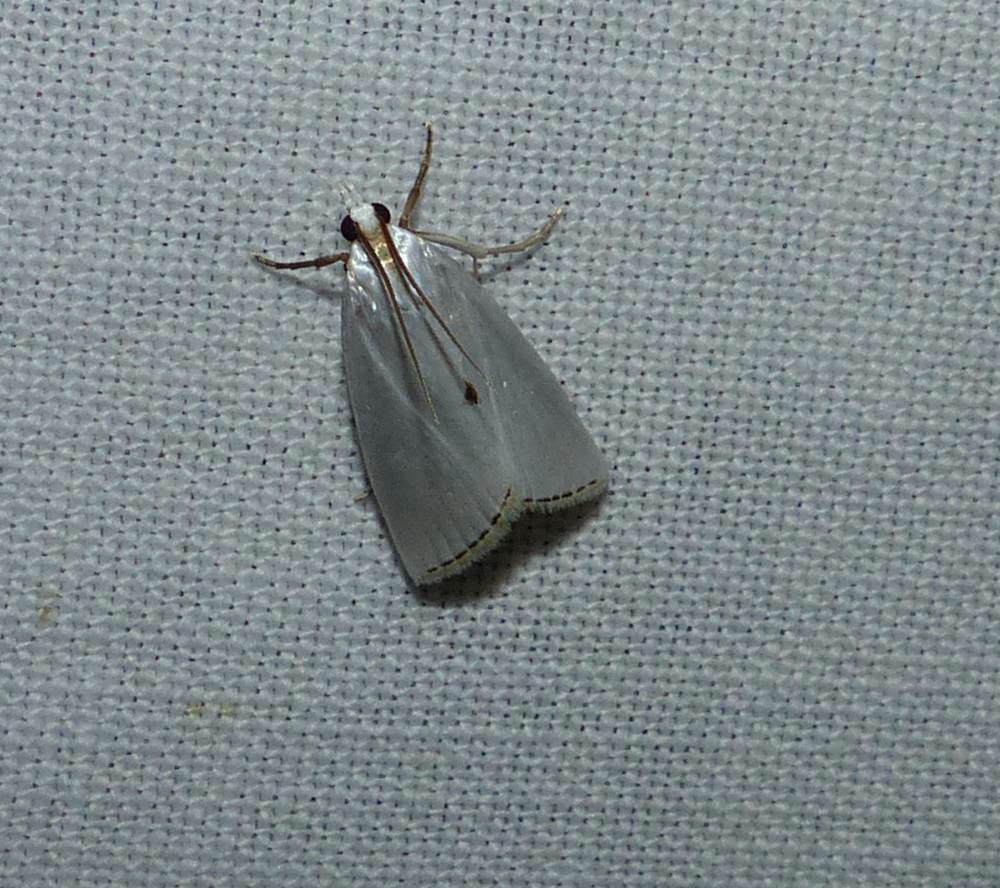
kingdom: Animalia
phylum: Arthropoda
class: Insecta
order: Lepidoptera
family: Crambidae
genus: Argyria
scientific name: Argyria nivalis
